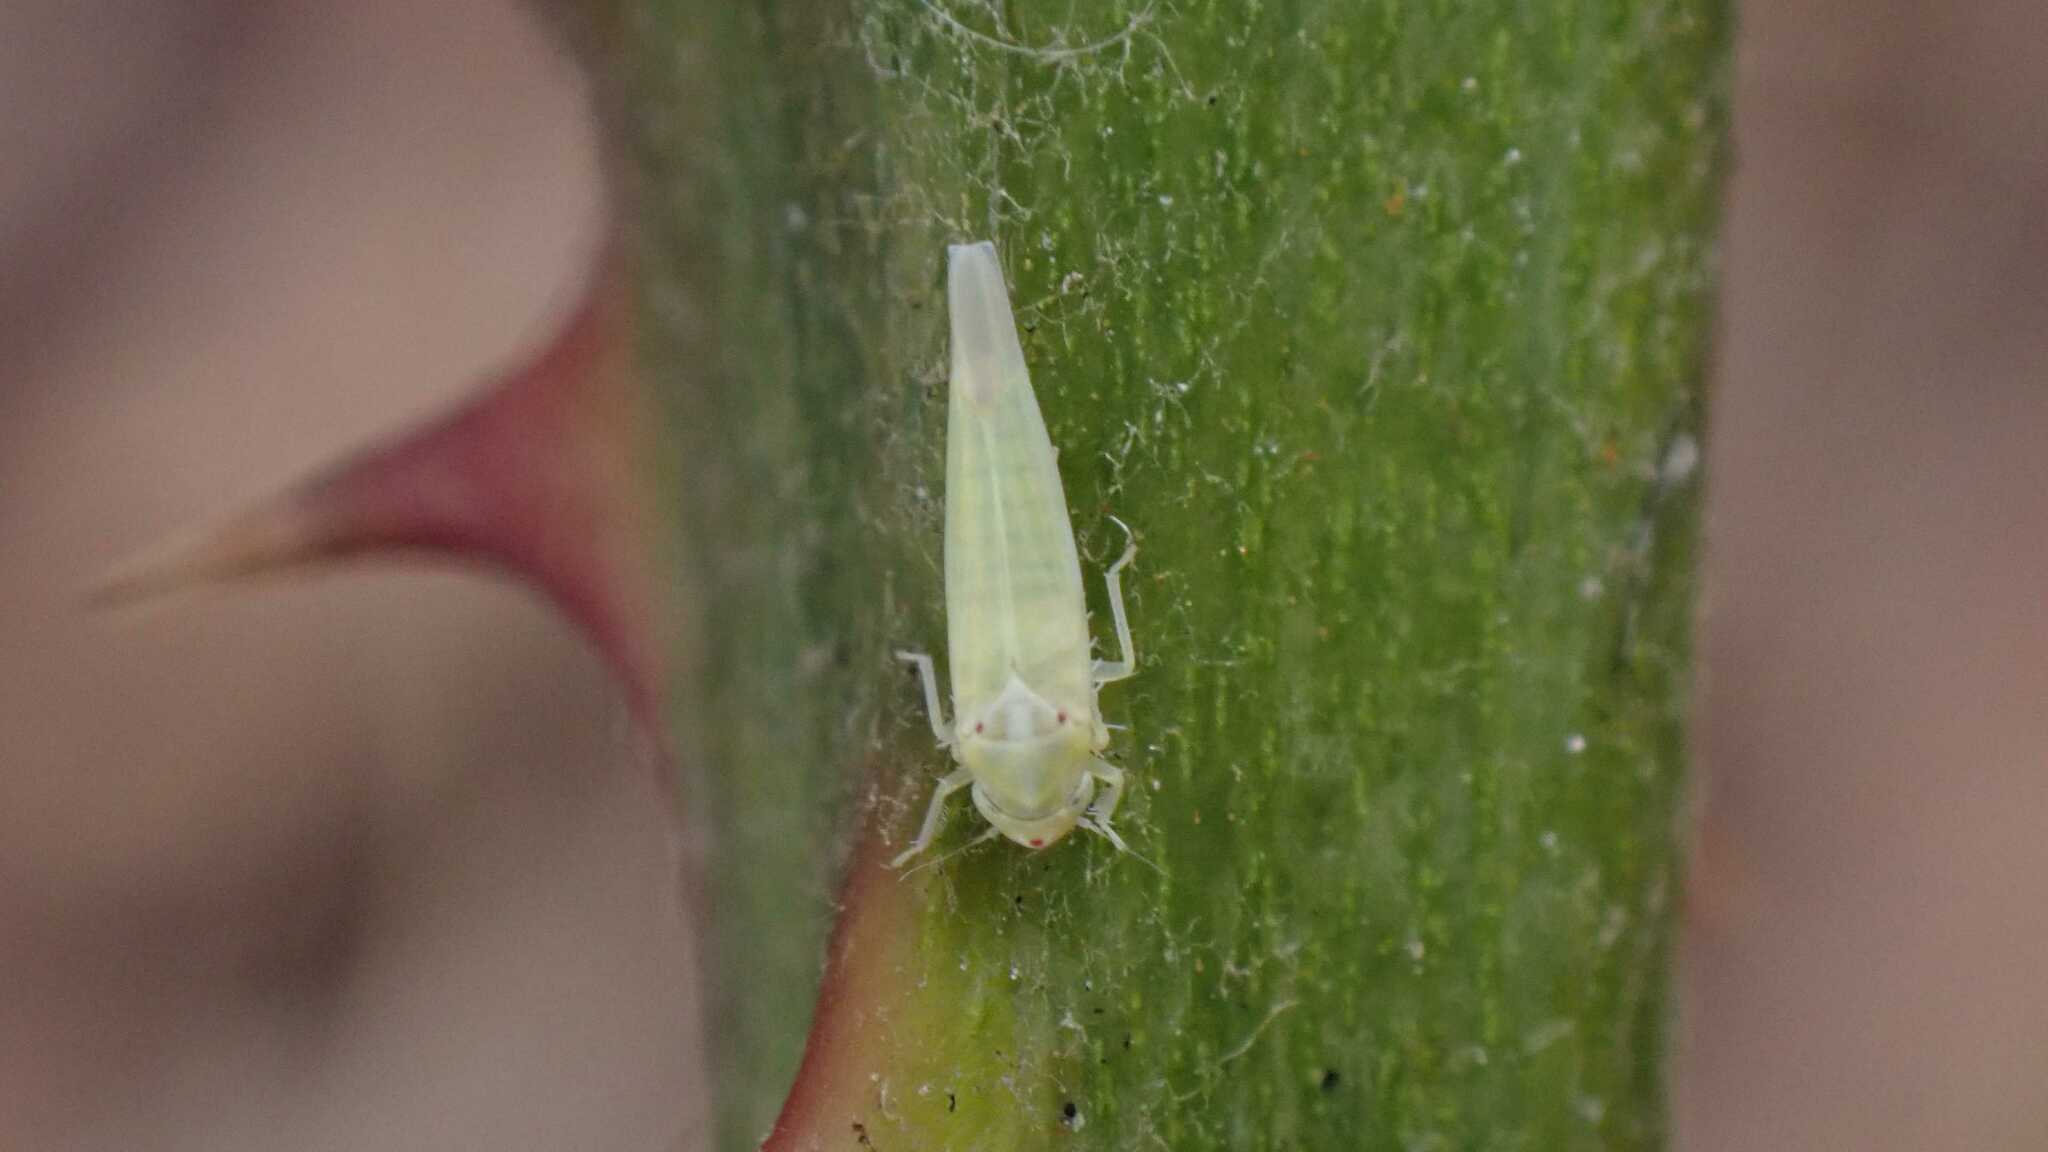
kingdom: Animalia
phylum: Arthropoda
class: Insecta
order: Hemiptera
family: Cicadellidae
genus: Zygina
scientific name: Zygina nivea
